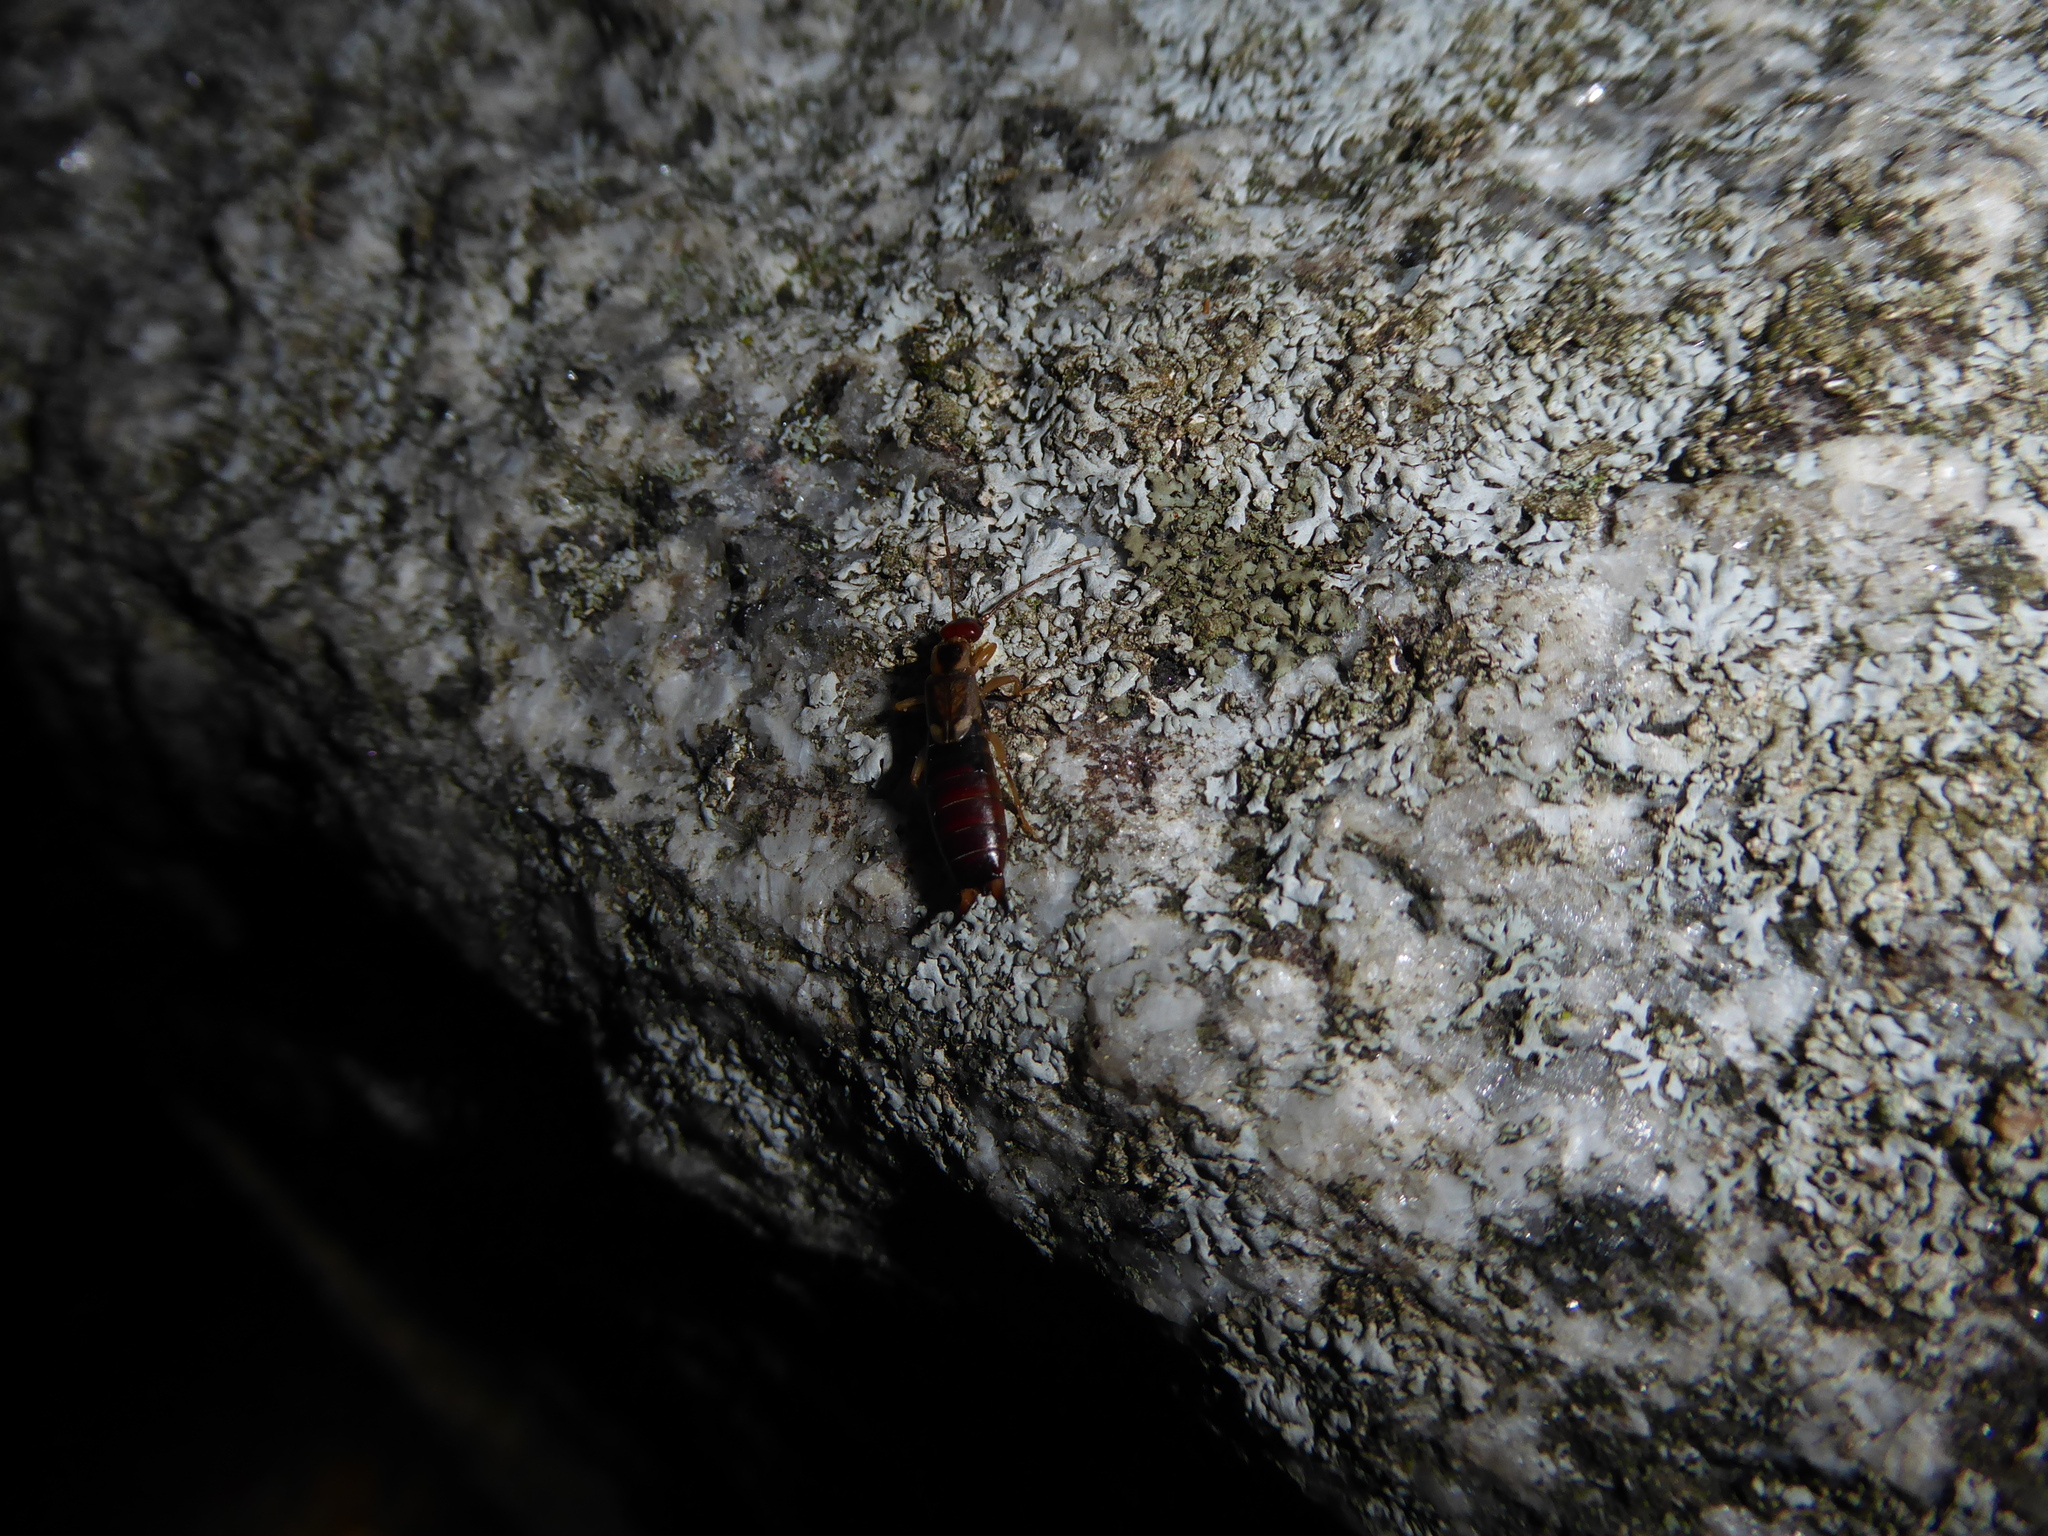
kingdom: Animalia
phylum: Arthropoda
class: Insecta
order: Dermaptera
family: Forficulidae
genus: Forficula
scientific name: Forficula
